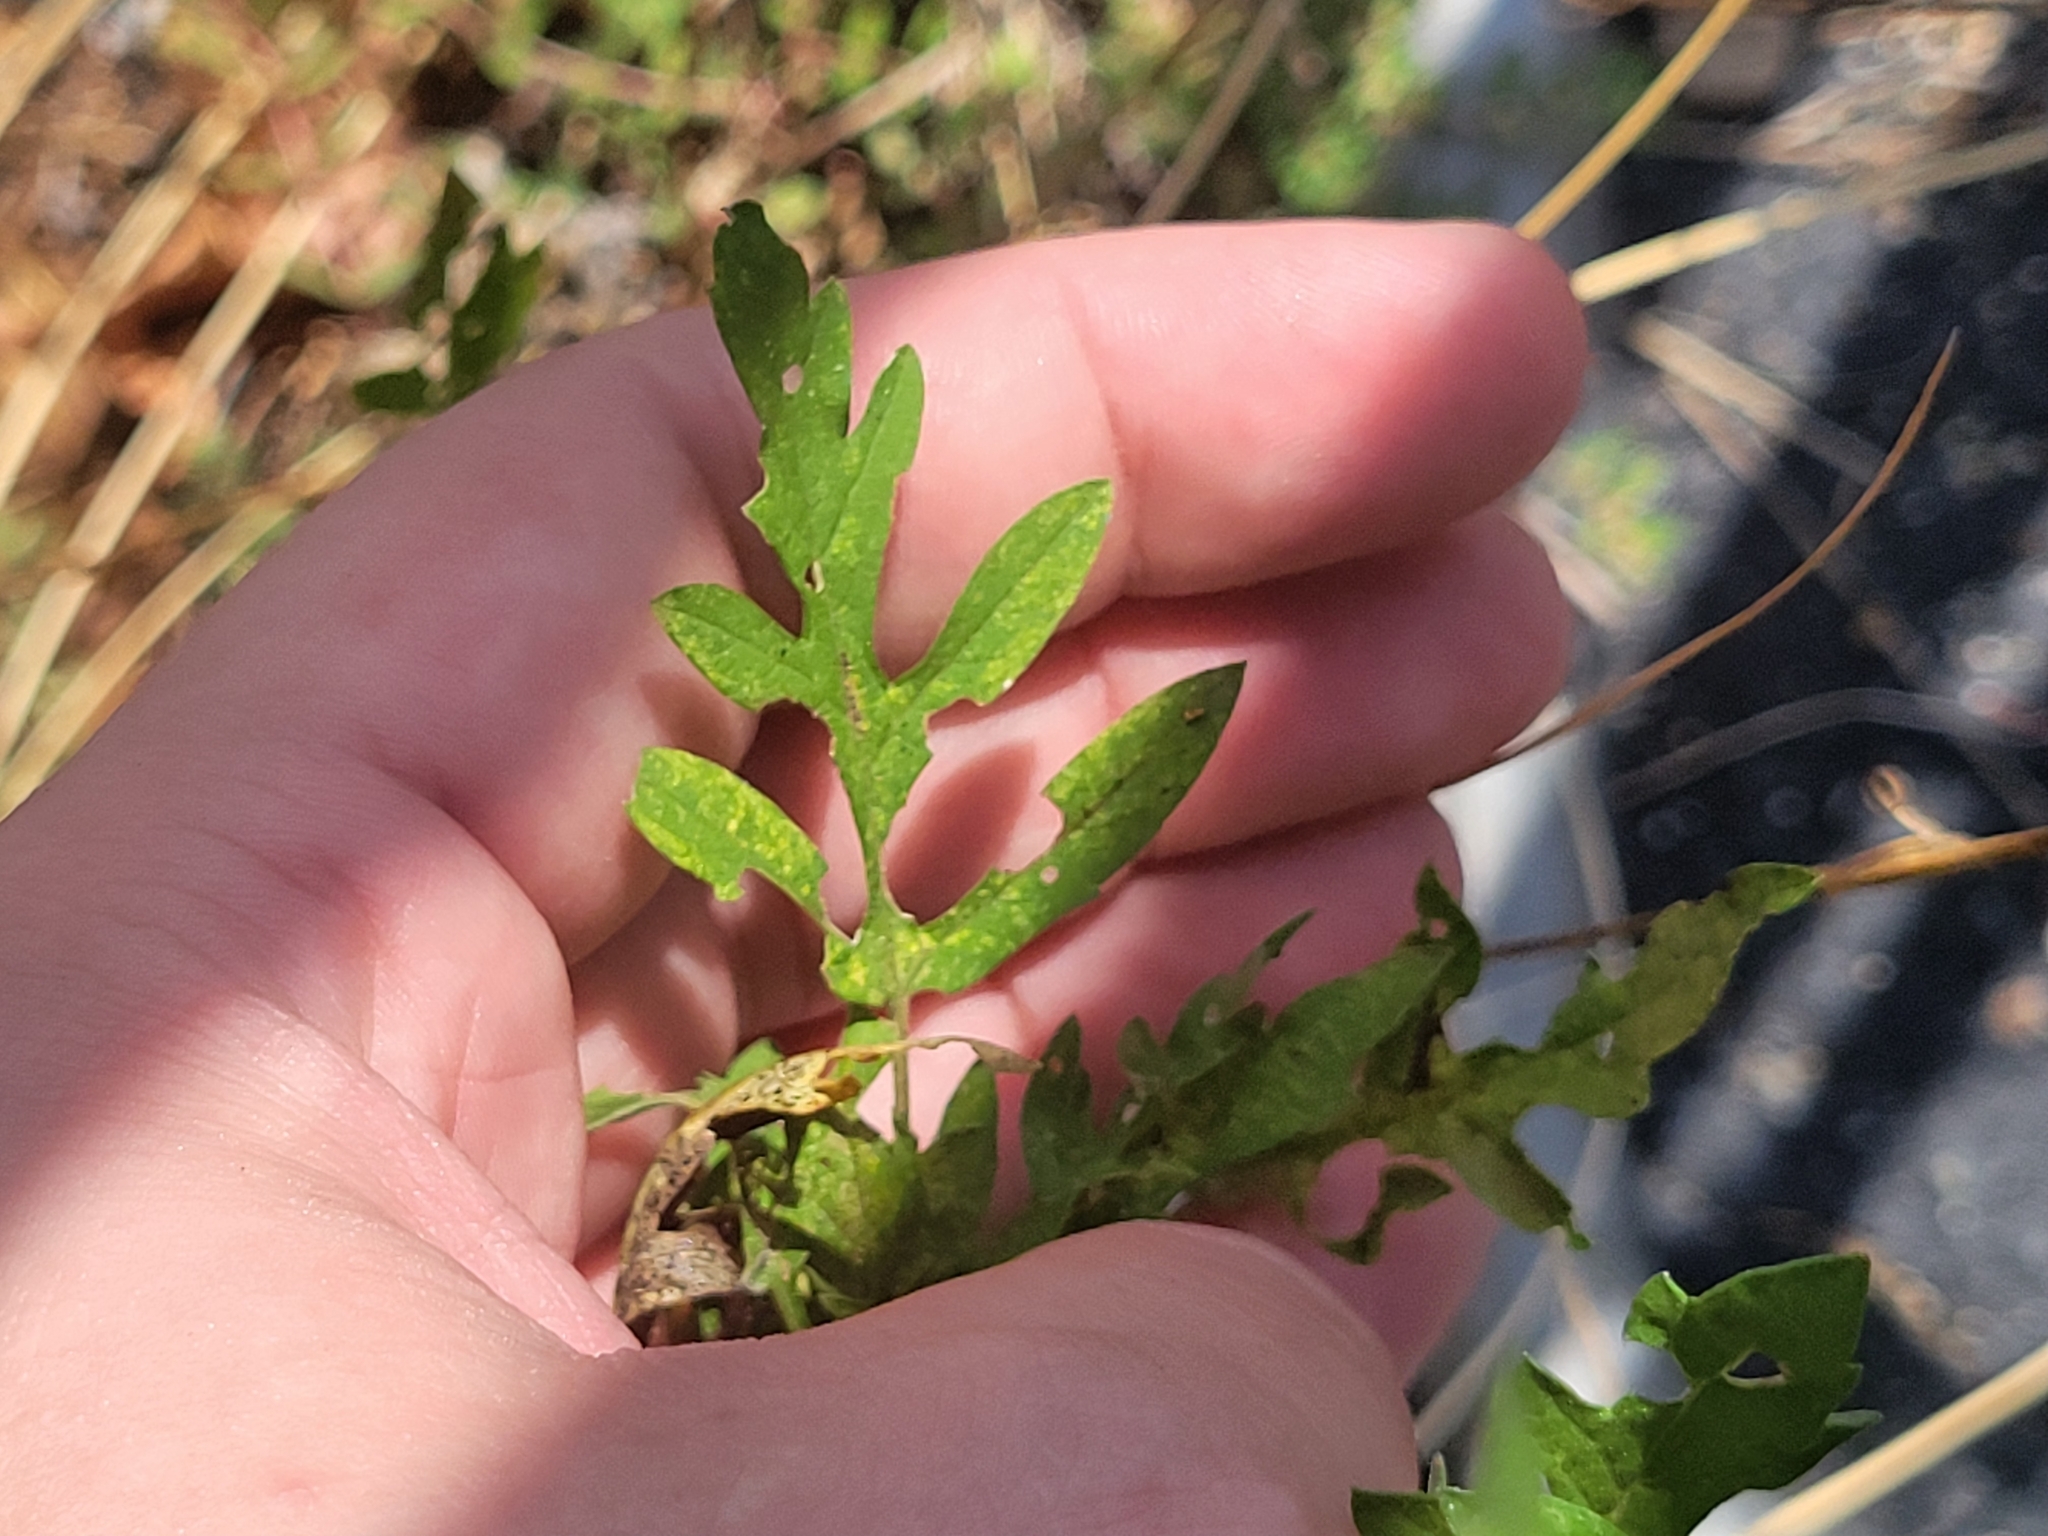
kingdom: Plantae
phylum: Tracheophyta
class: Magnoliopsida
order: Asterales
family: Asteraceae
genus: Ambrosia
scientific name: Ambrosia artemisiifolia
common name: Annual ragweed
